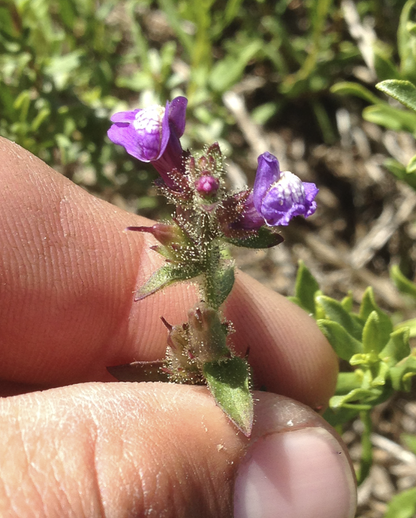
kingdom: Plantae
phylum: Tracheophyta
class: Magnoliopsida
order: Lamiales
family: Plantaginaceae
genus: Sairocarpus
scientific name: Sairocarpus nuttallianus
